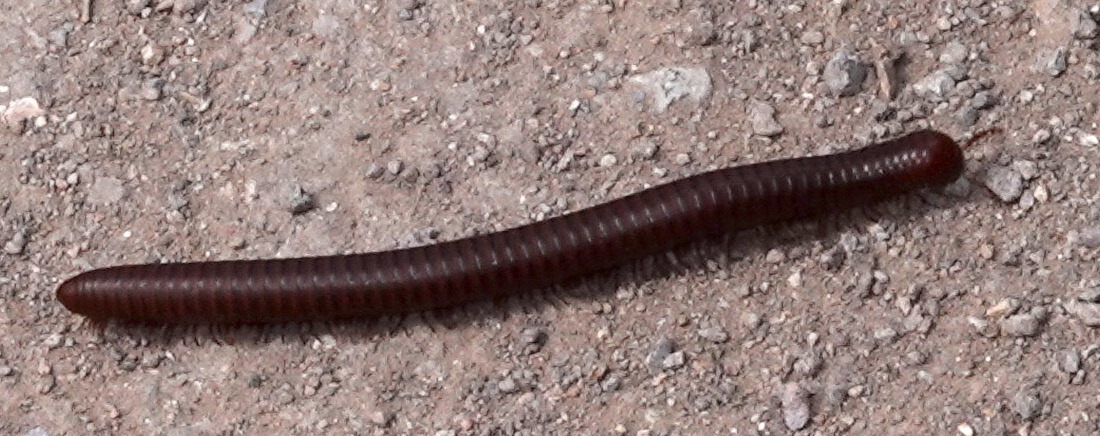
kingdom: Animalia
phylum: Arthropoda
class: Diplopoda
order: Spirostreptida
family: Spirostreptidae
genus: Orthoporus
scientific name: Orthoporus ornatus
